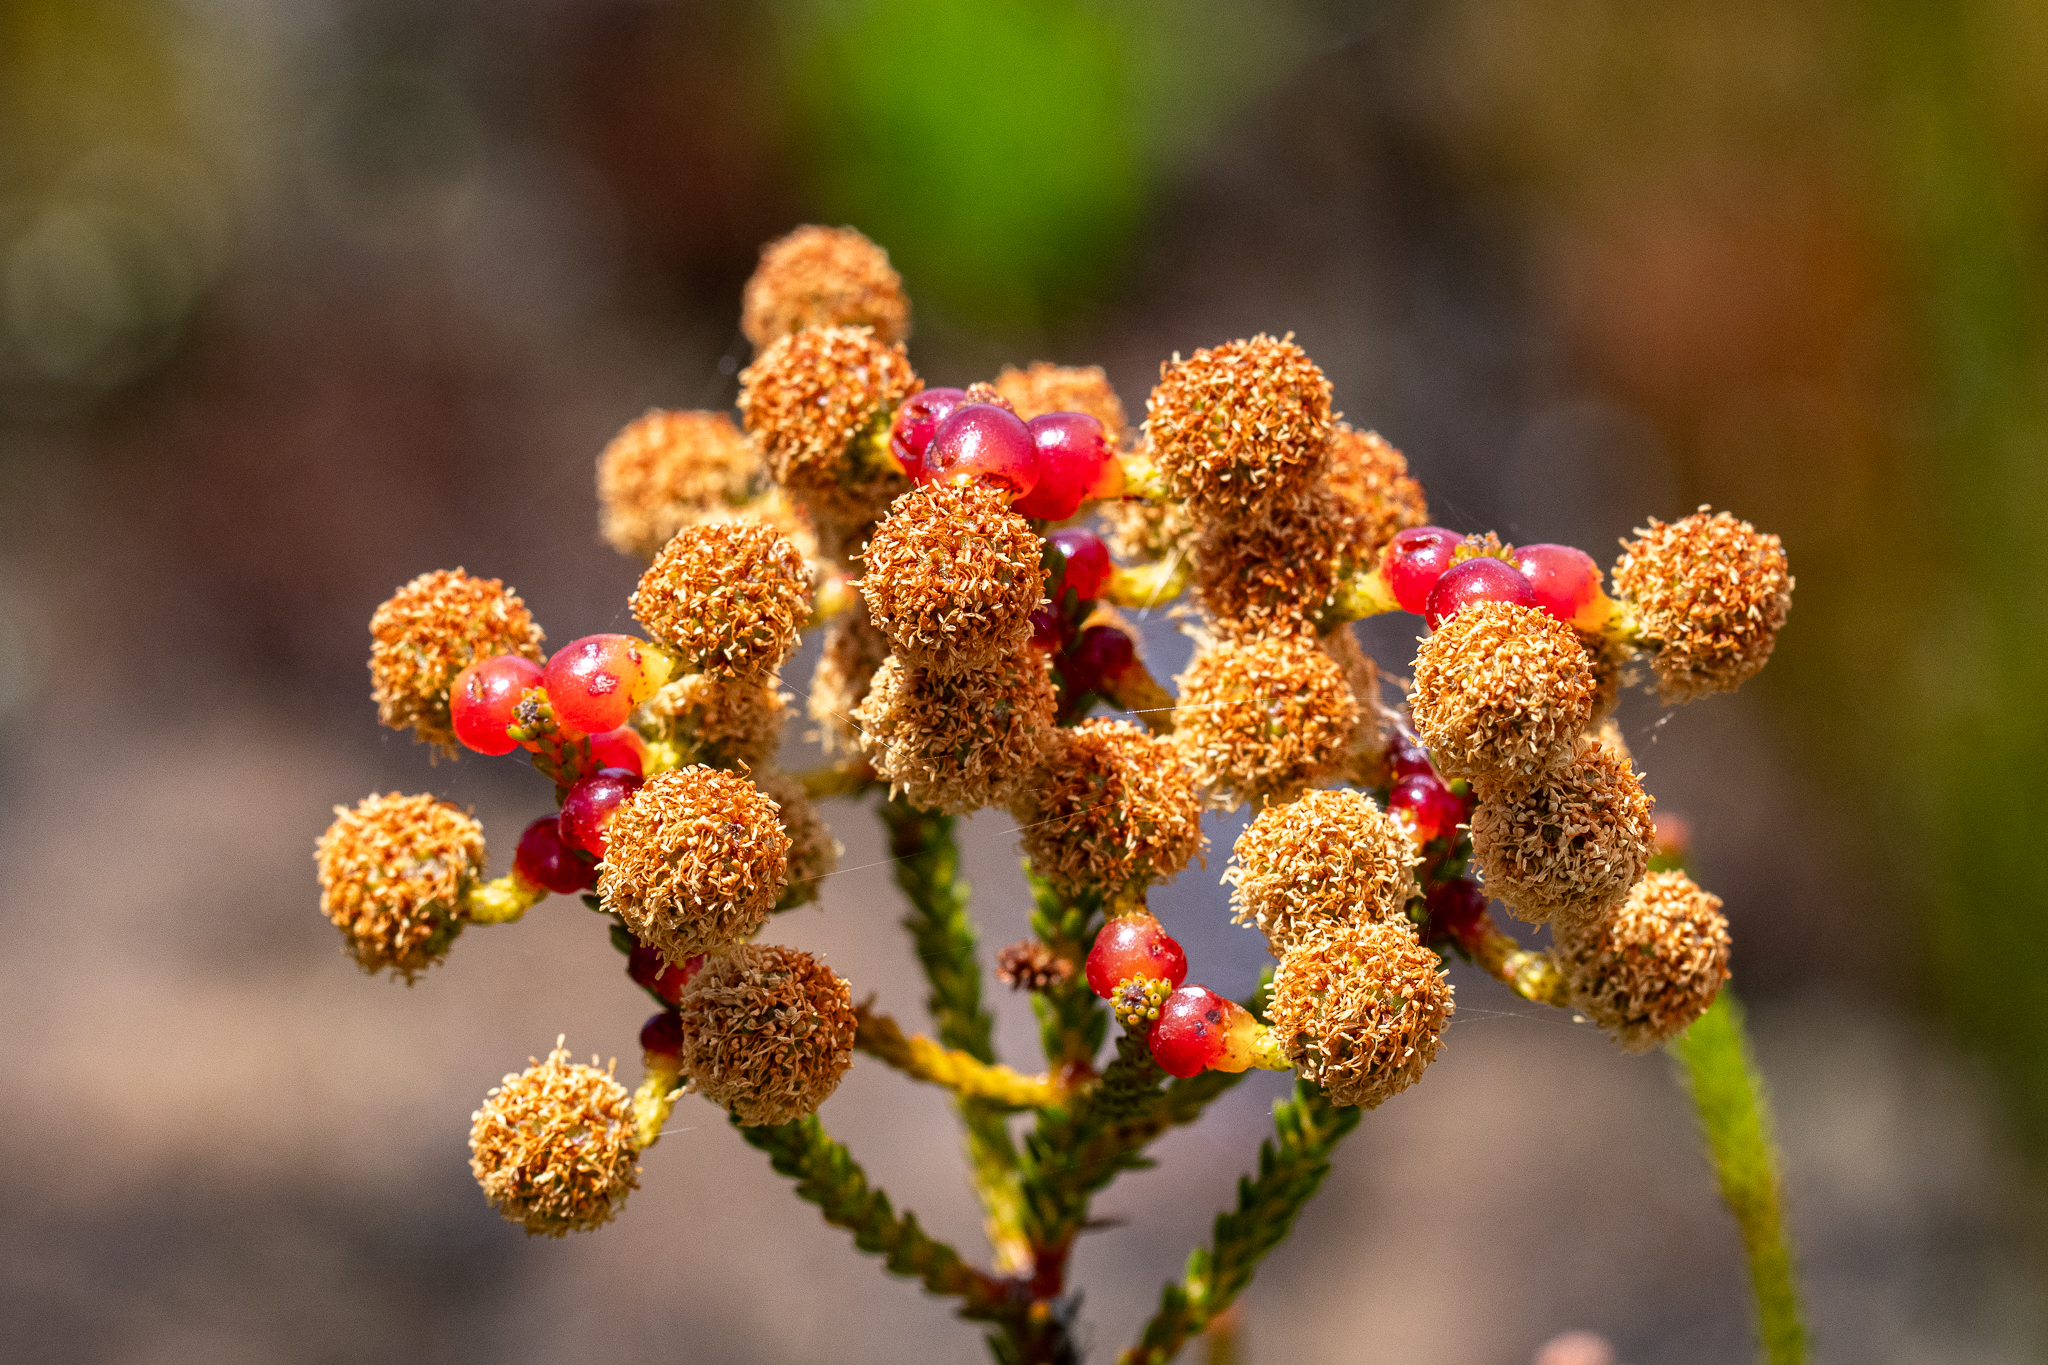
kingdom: Plantae
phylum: Tracheophyta
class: Magnoliopsida
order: Bruniales
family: Bruniaceae
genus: Berzelia
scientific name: Berzelia abrotanoides
